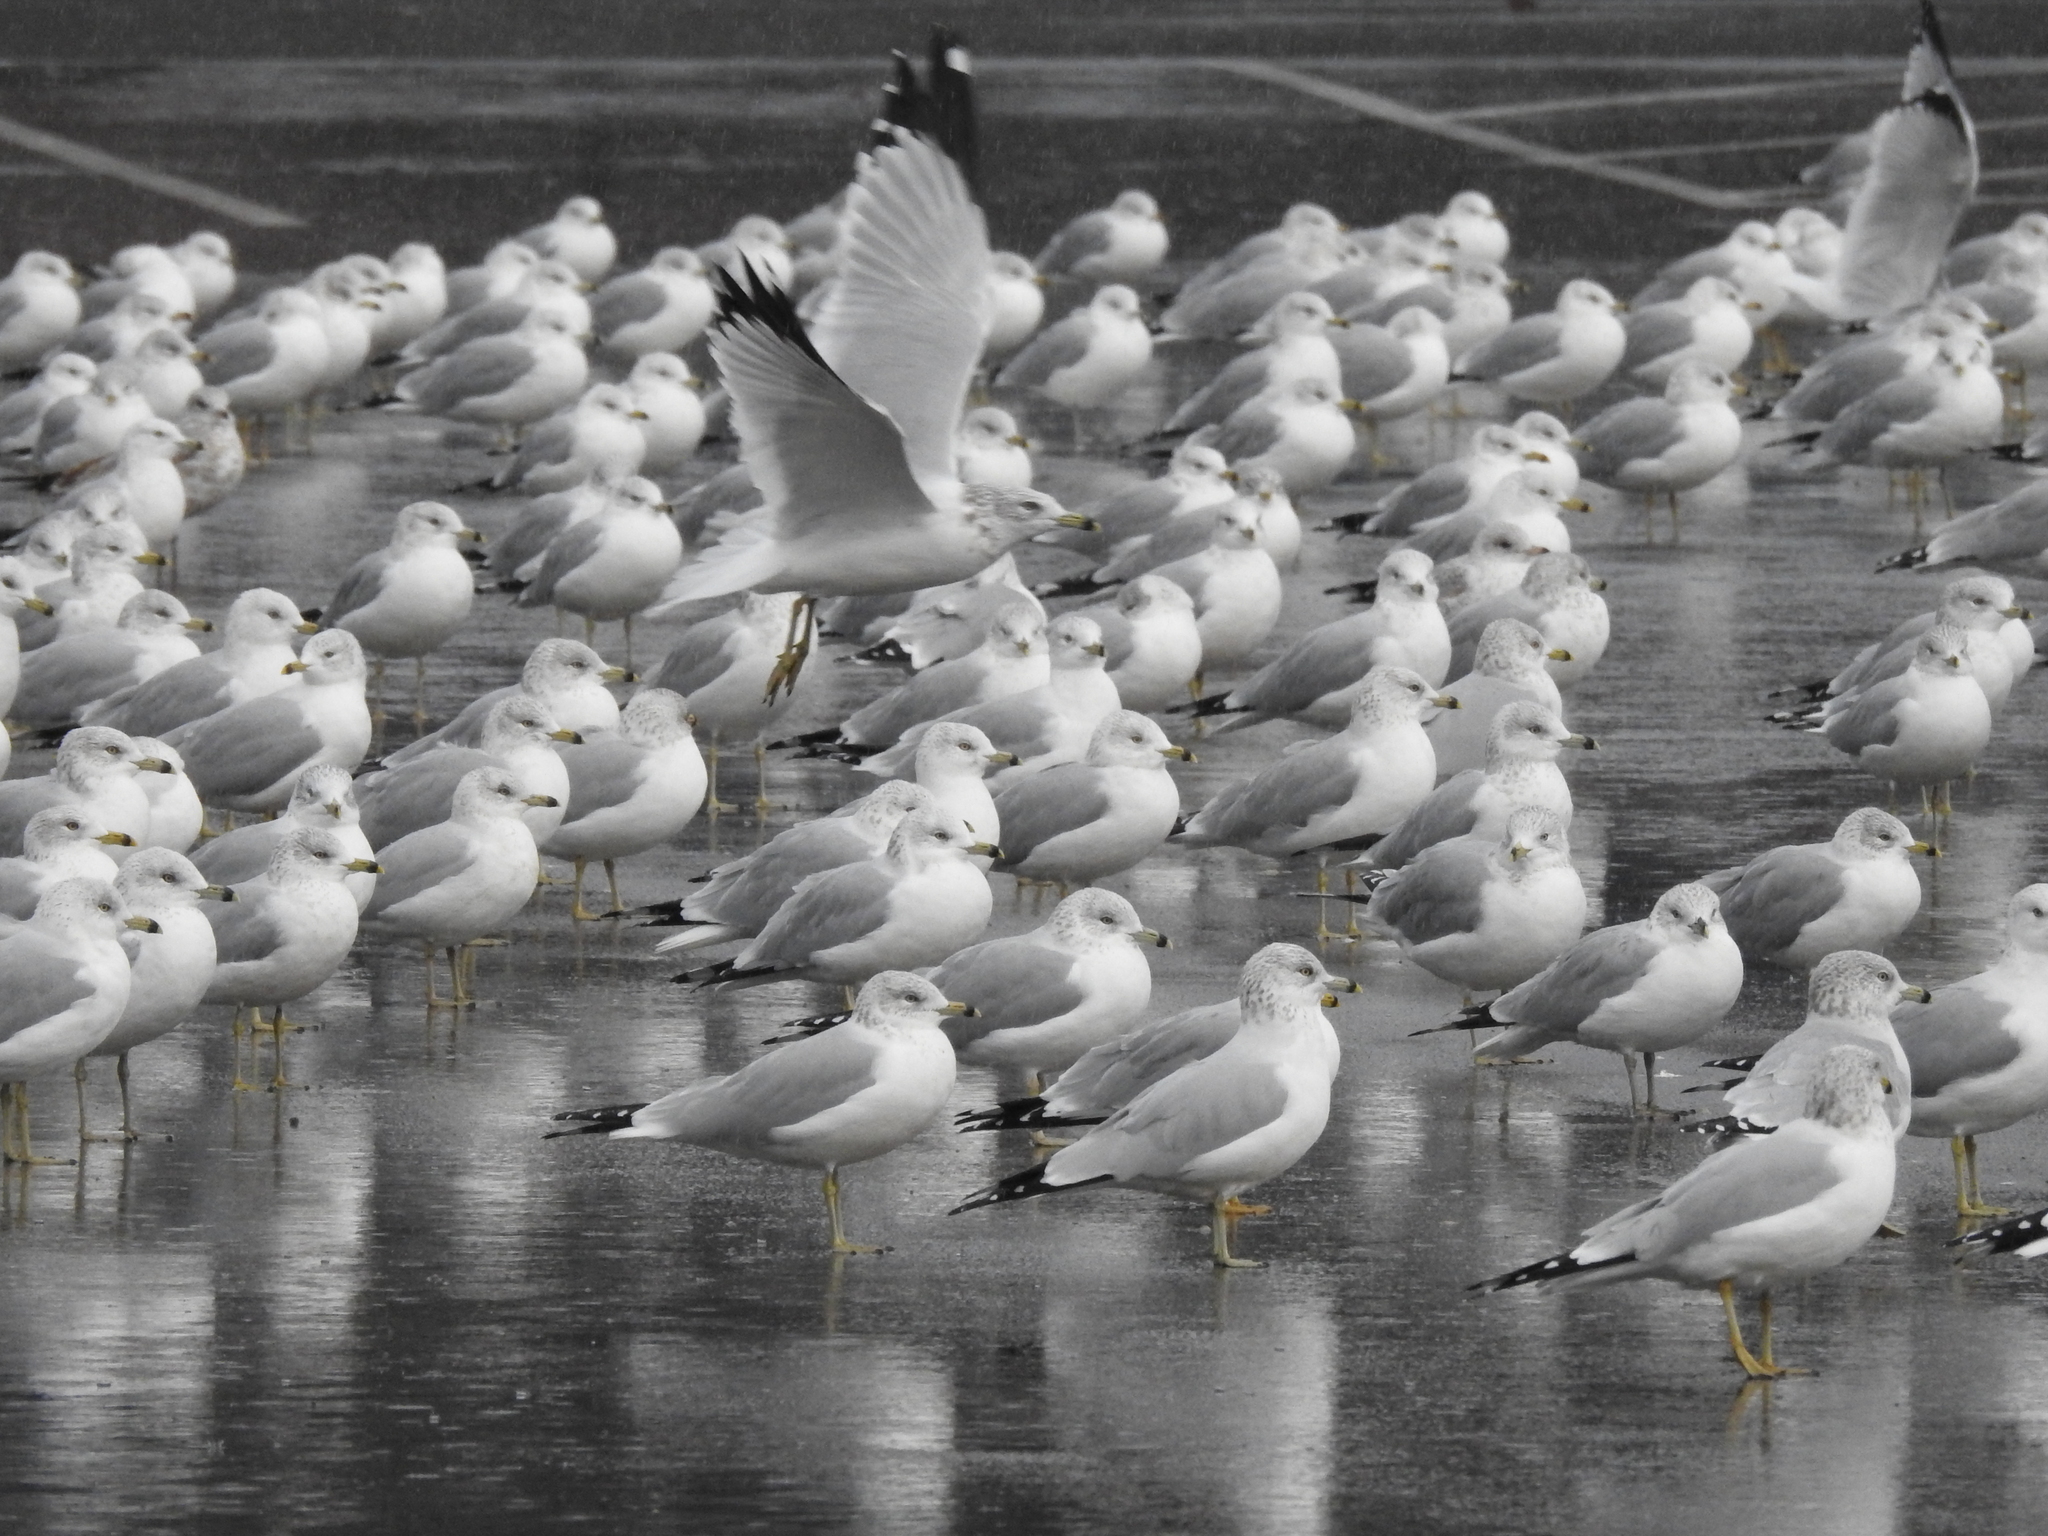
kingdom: Animalia
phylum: Chordata
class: Aves
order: Charadriiformes
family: Laridae
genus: Larus
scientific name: Larus delawarensis
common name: Ring-billed gull
